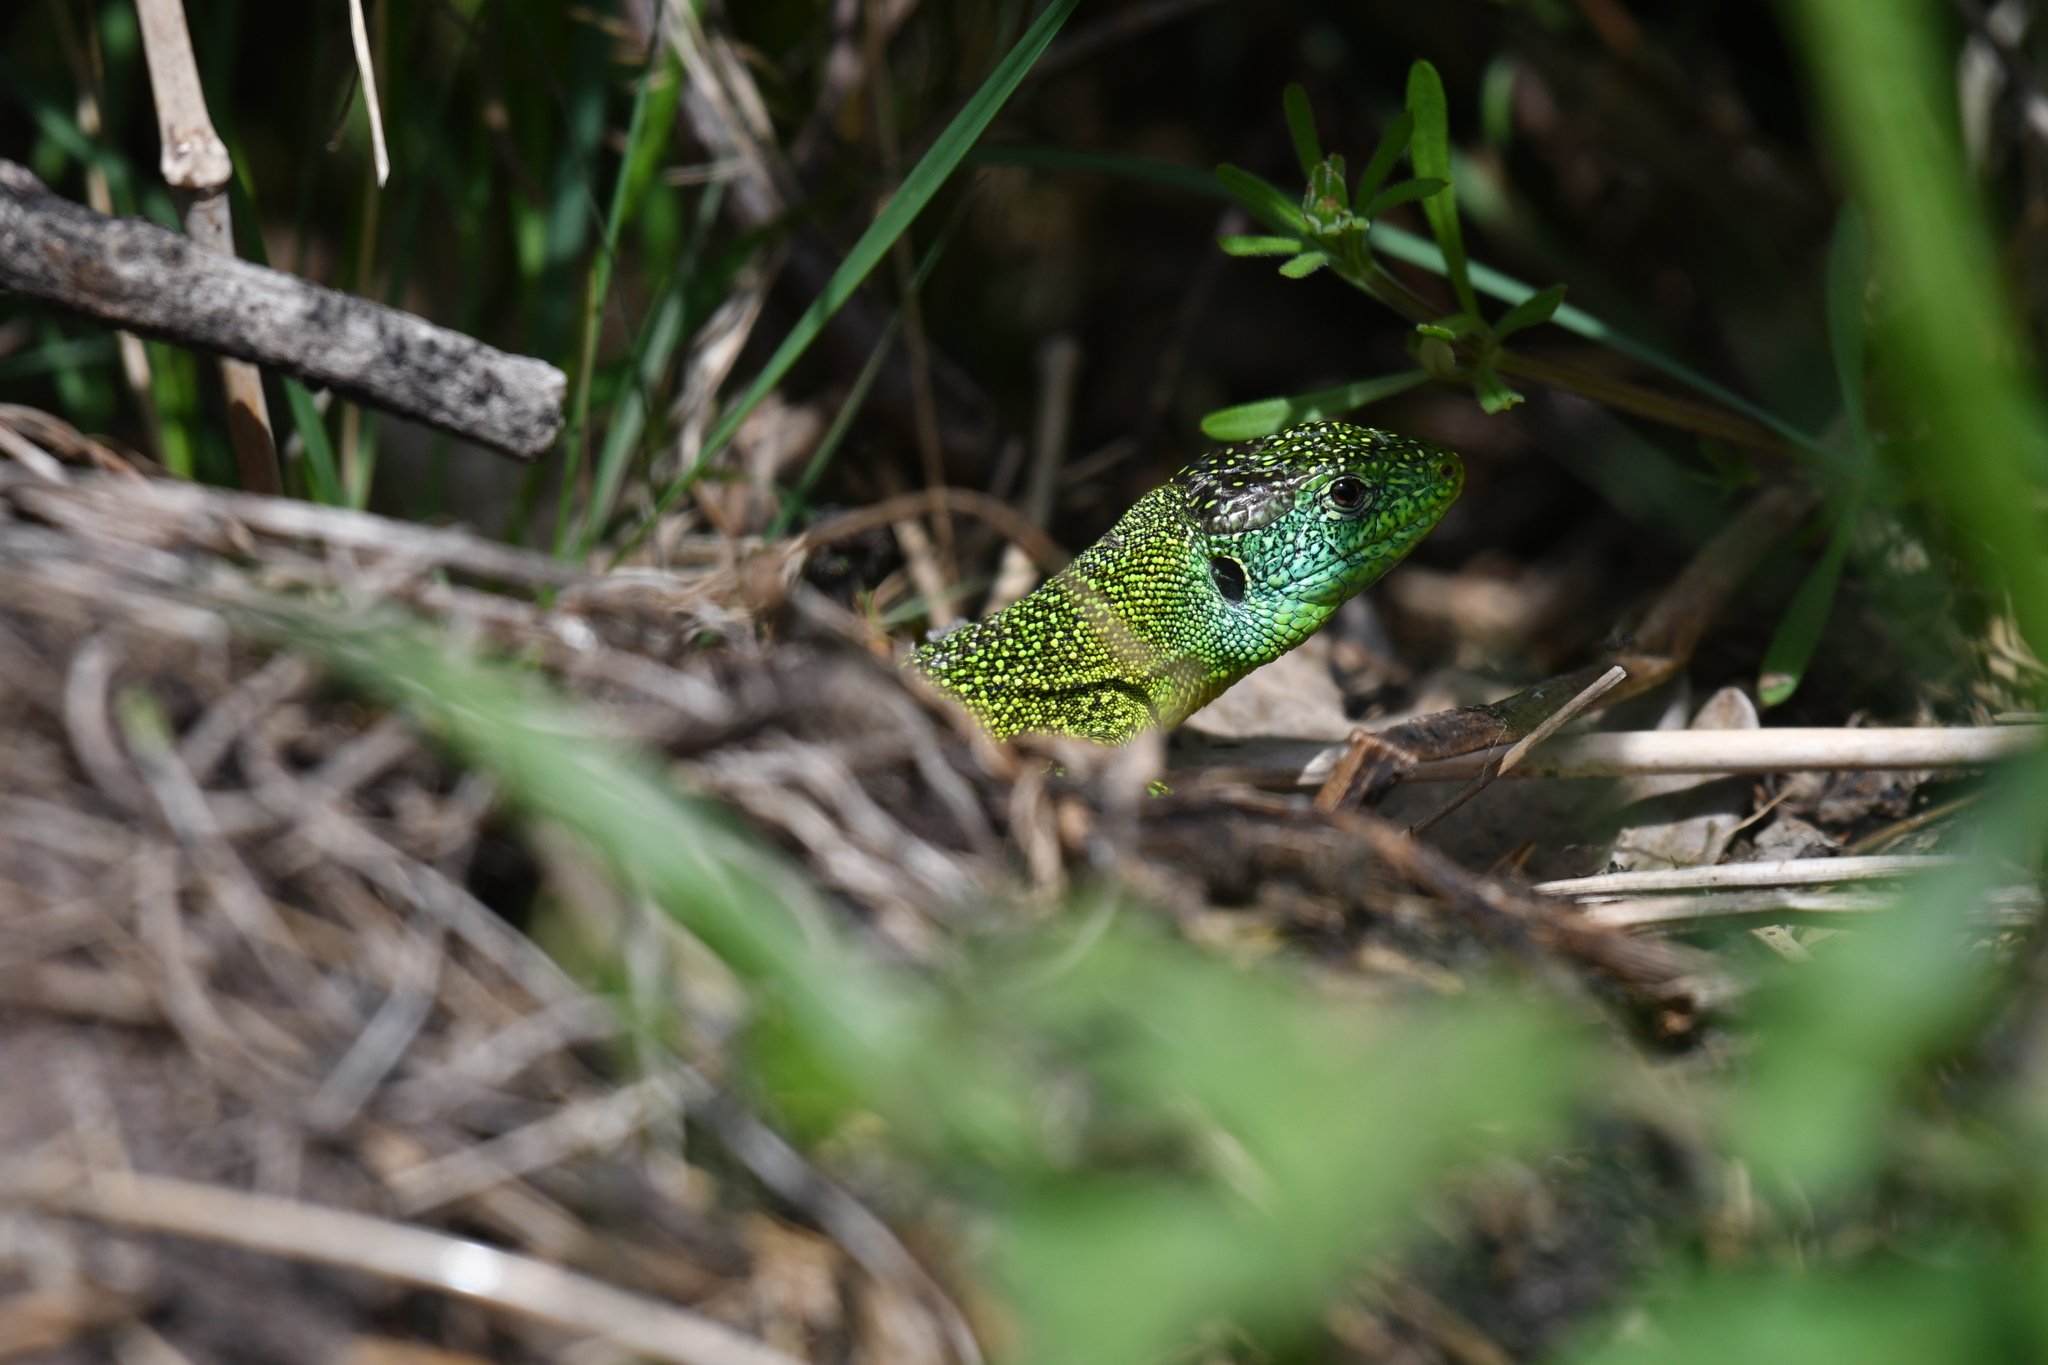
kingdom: Animalia
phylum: Chordata
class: Squamata
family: Lacertidae
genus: Lacerta
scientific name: Lacerta bilineata
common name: Western green lizard
